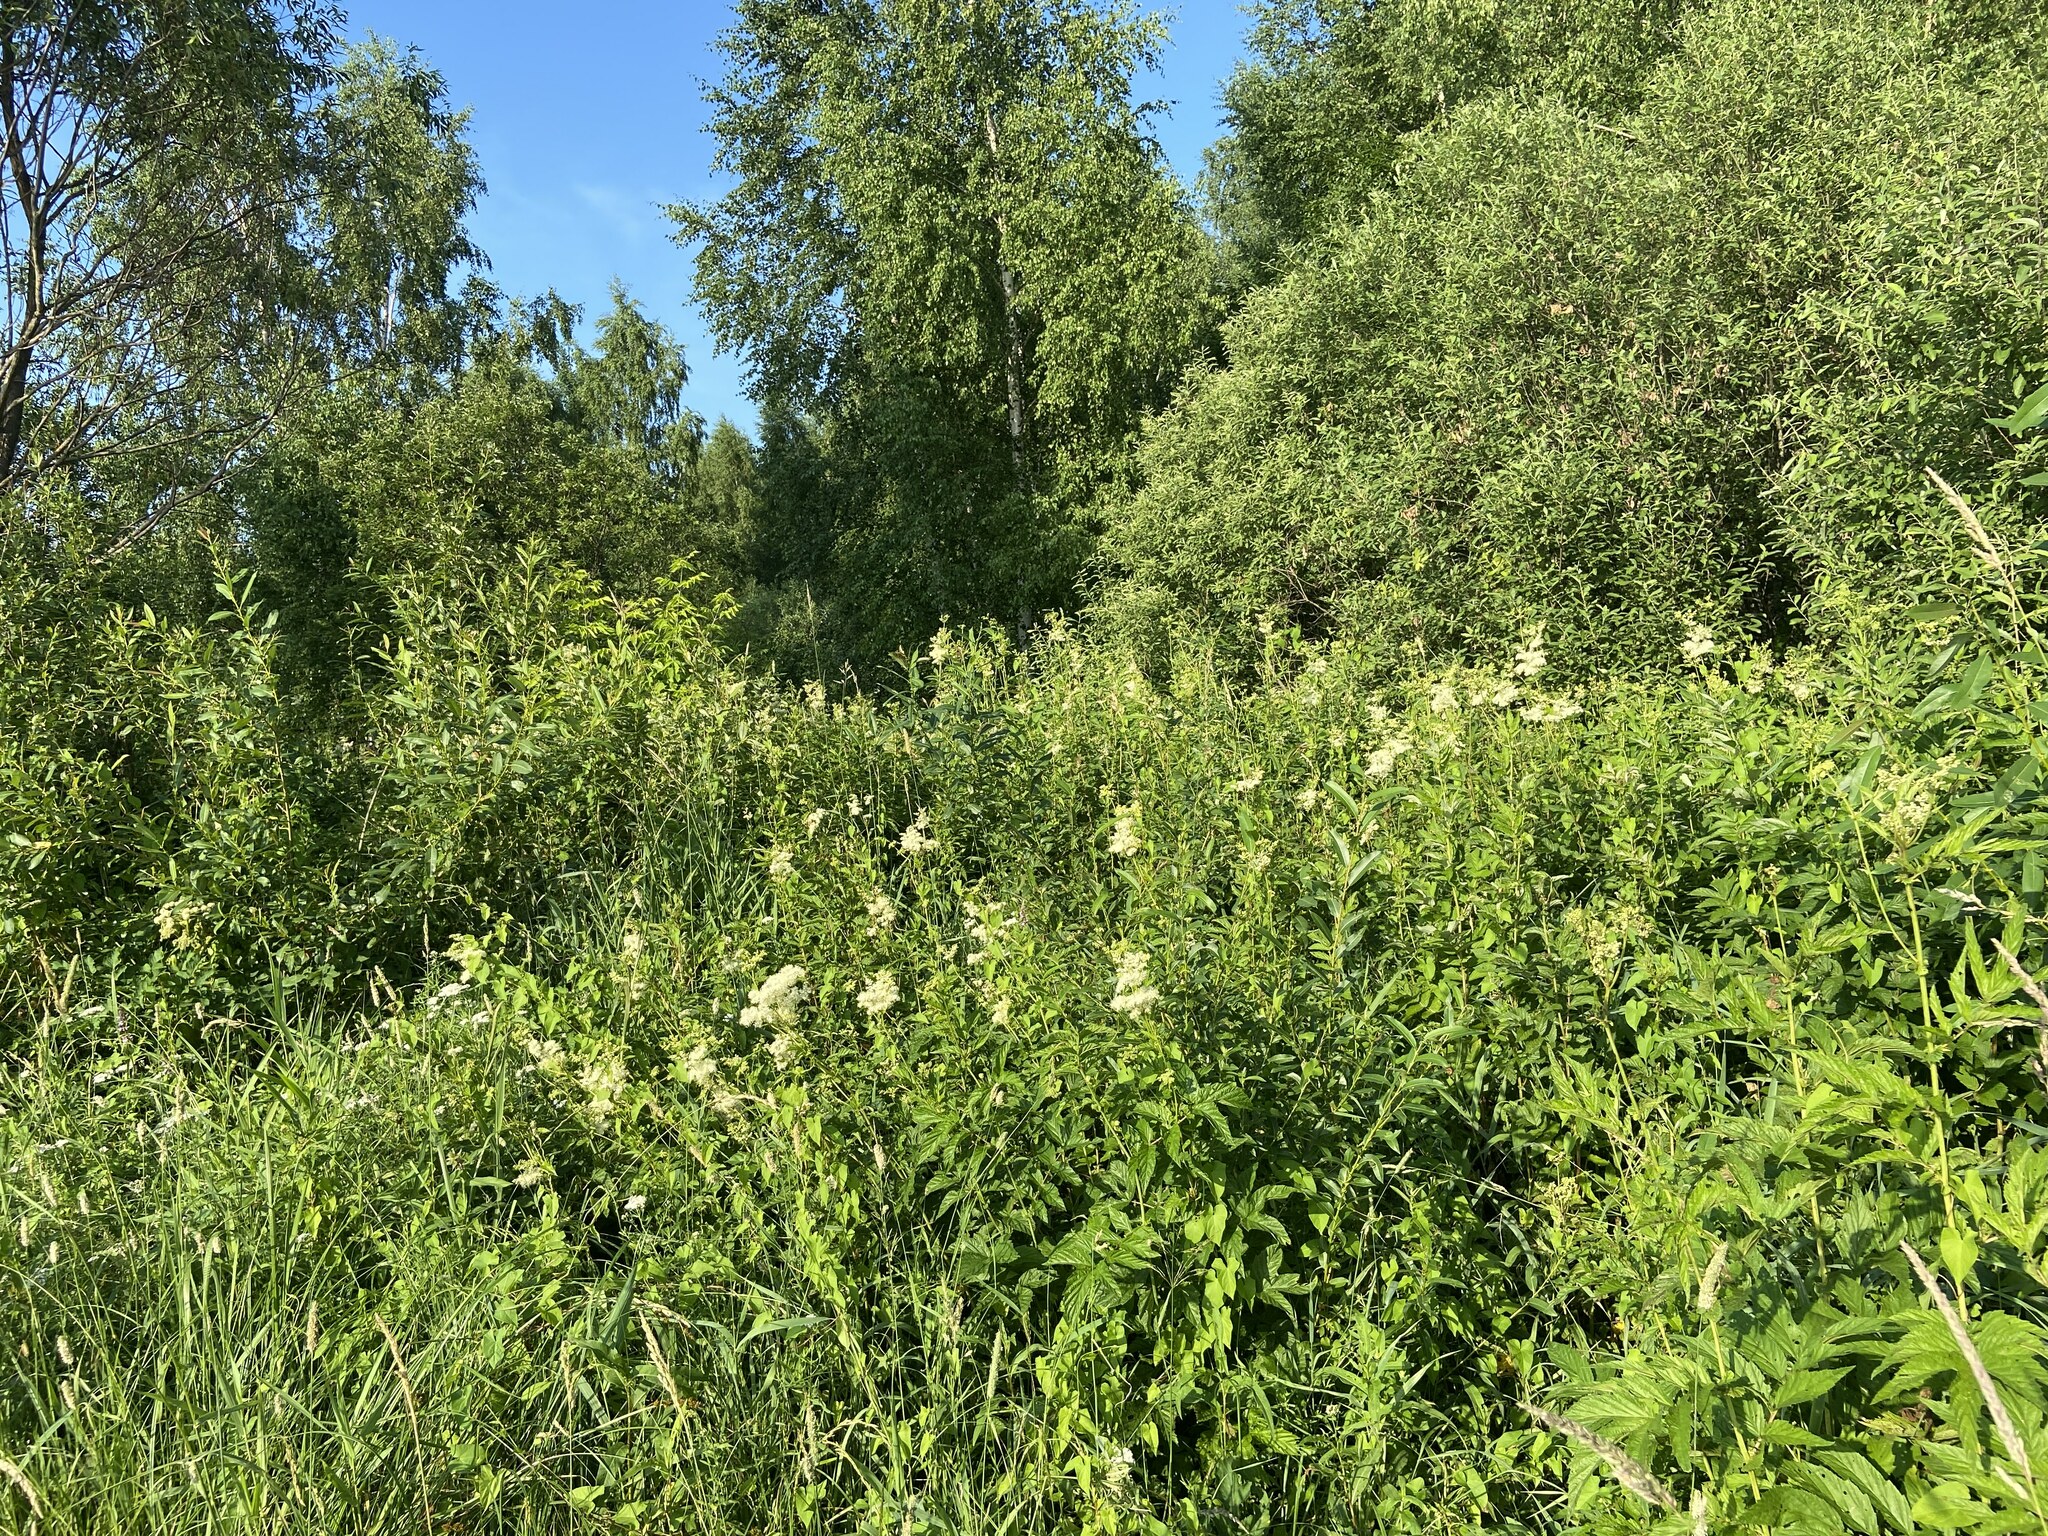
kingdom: Plantae
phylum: Tracheophyta
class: Magnoliopsida
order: Rosales
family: Rosaceae
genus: Filipendula
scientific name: Filipendula ulmaria
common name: Meadowsweet
